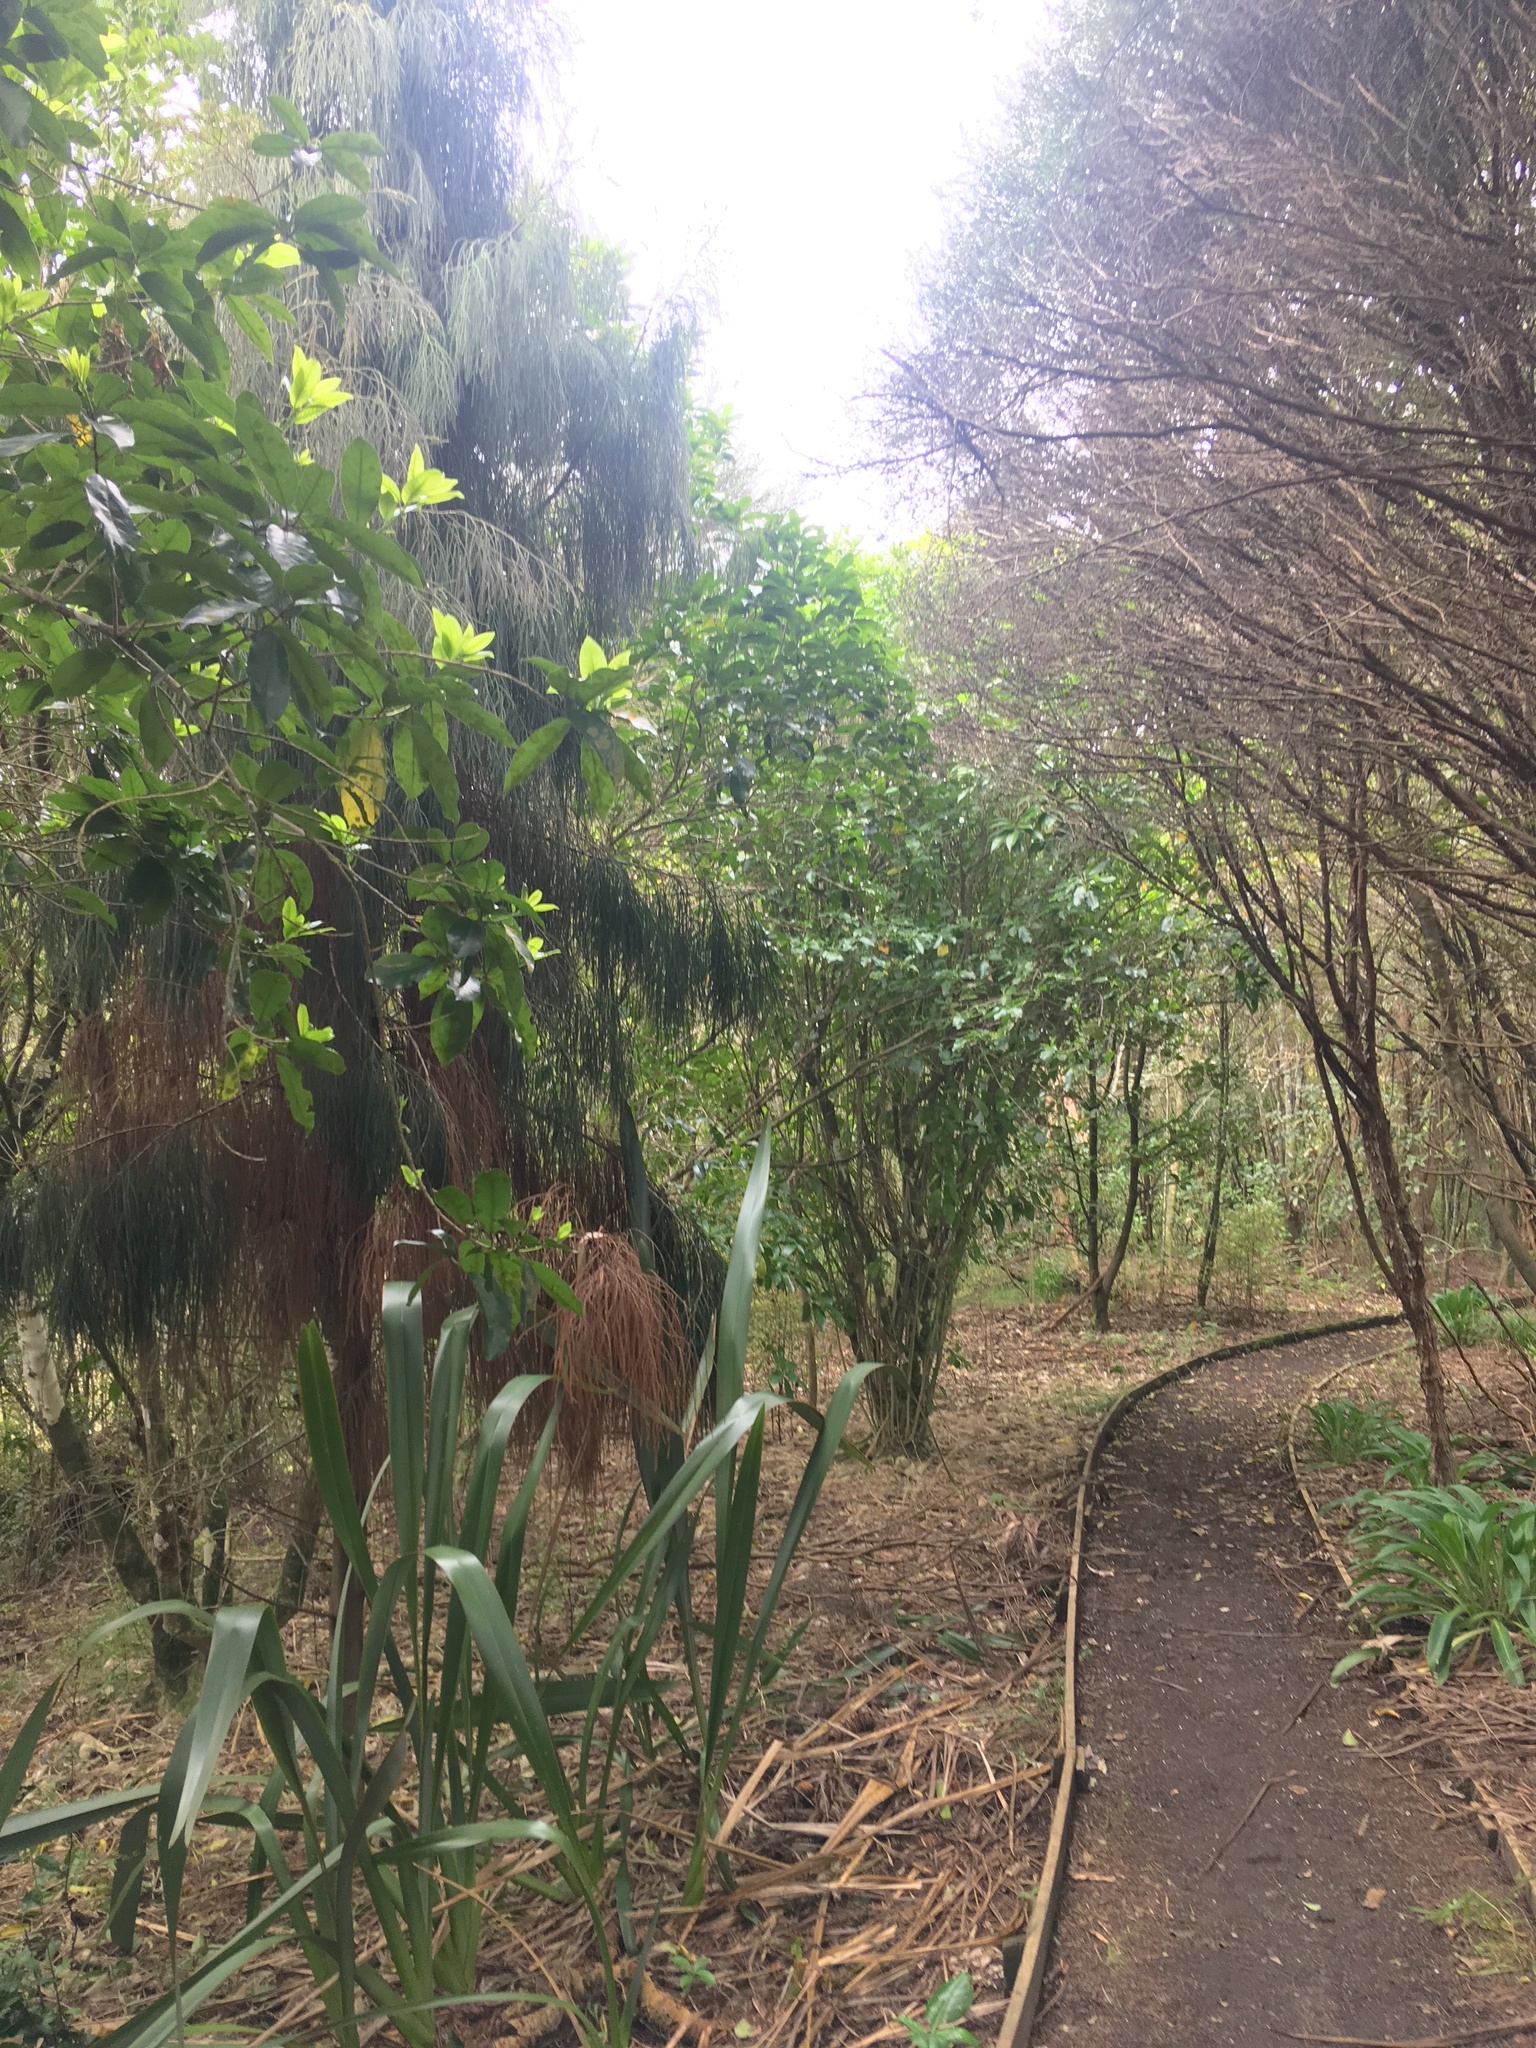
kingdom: Plantae
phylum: Tracheophyta
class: Pinopsida
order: Pinales
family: Podocarpaceae
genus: Dacrydium
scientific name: Dacrydium cupressinum
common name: Red pine
